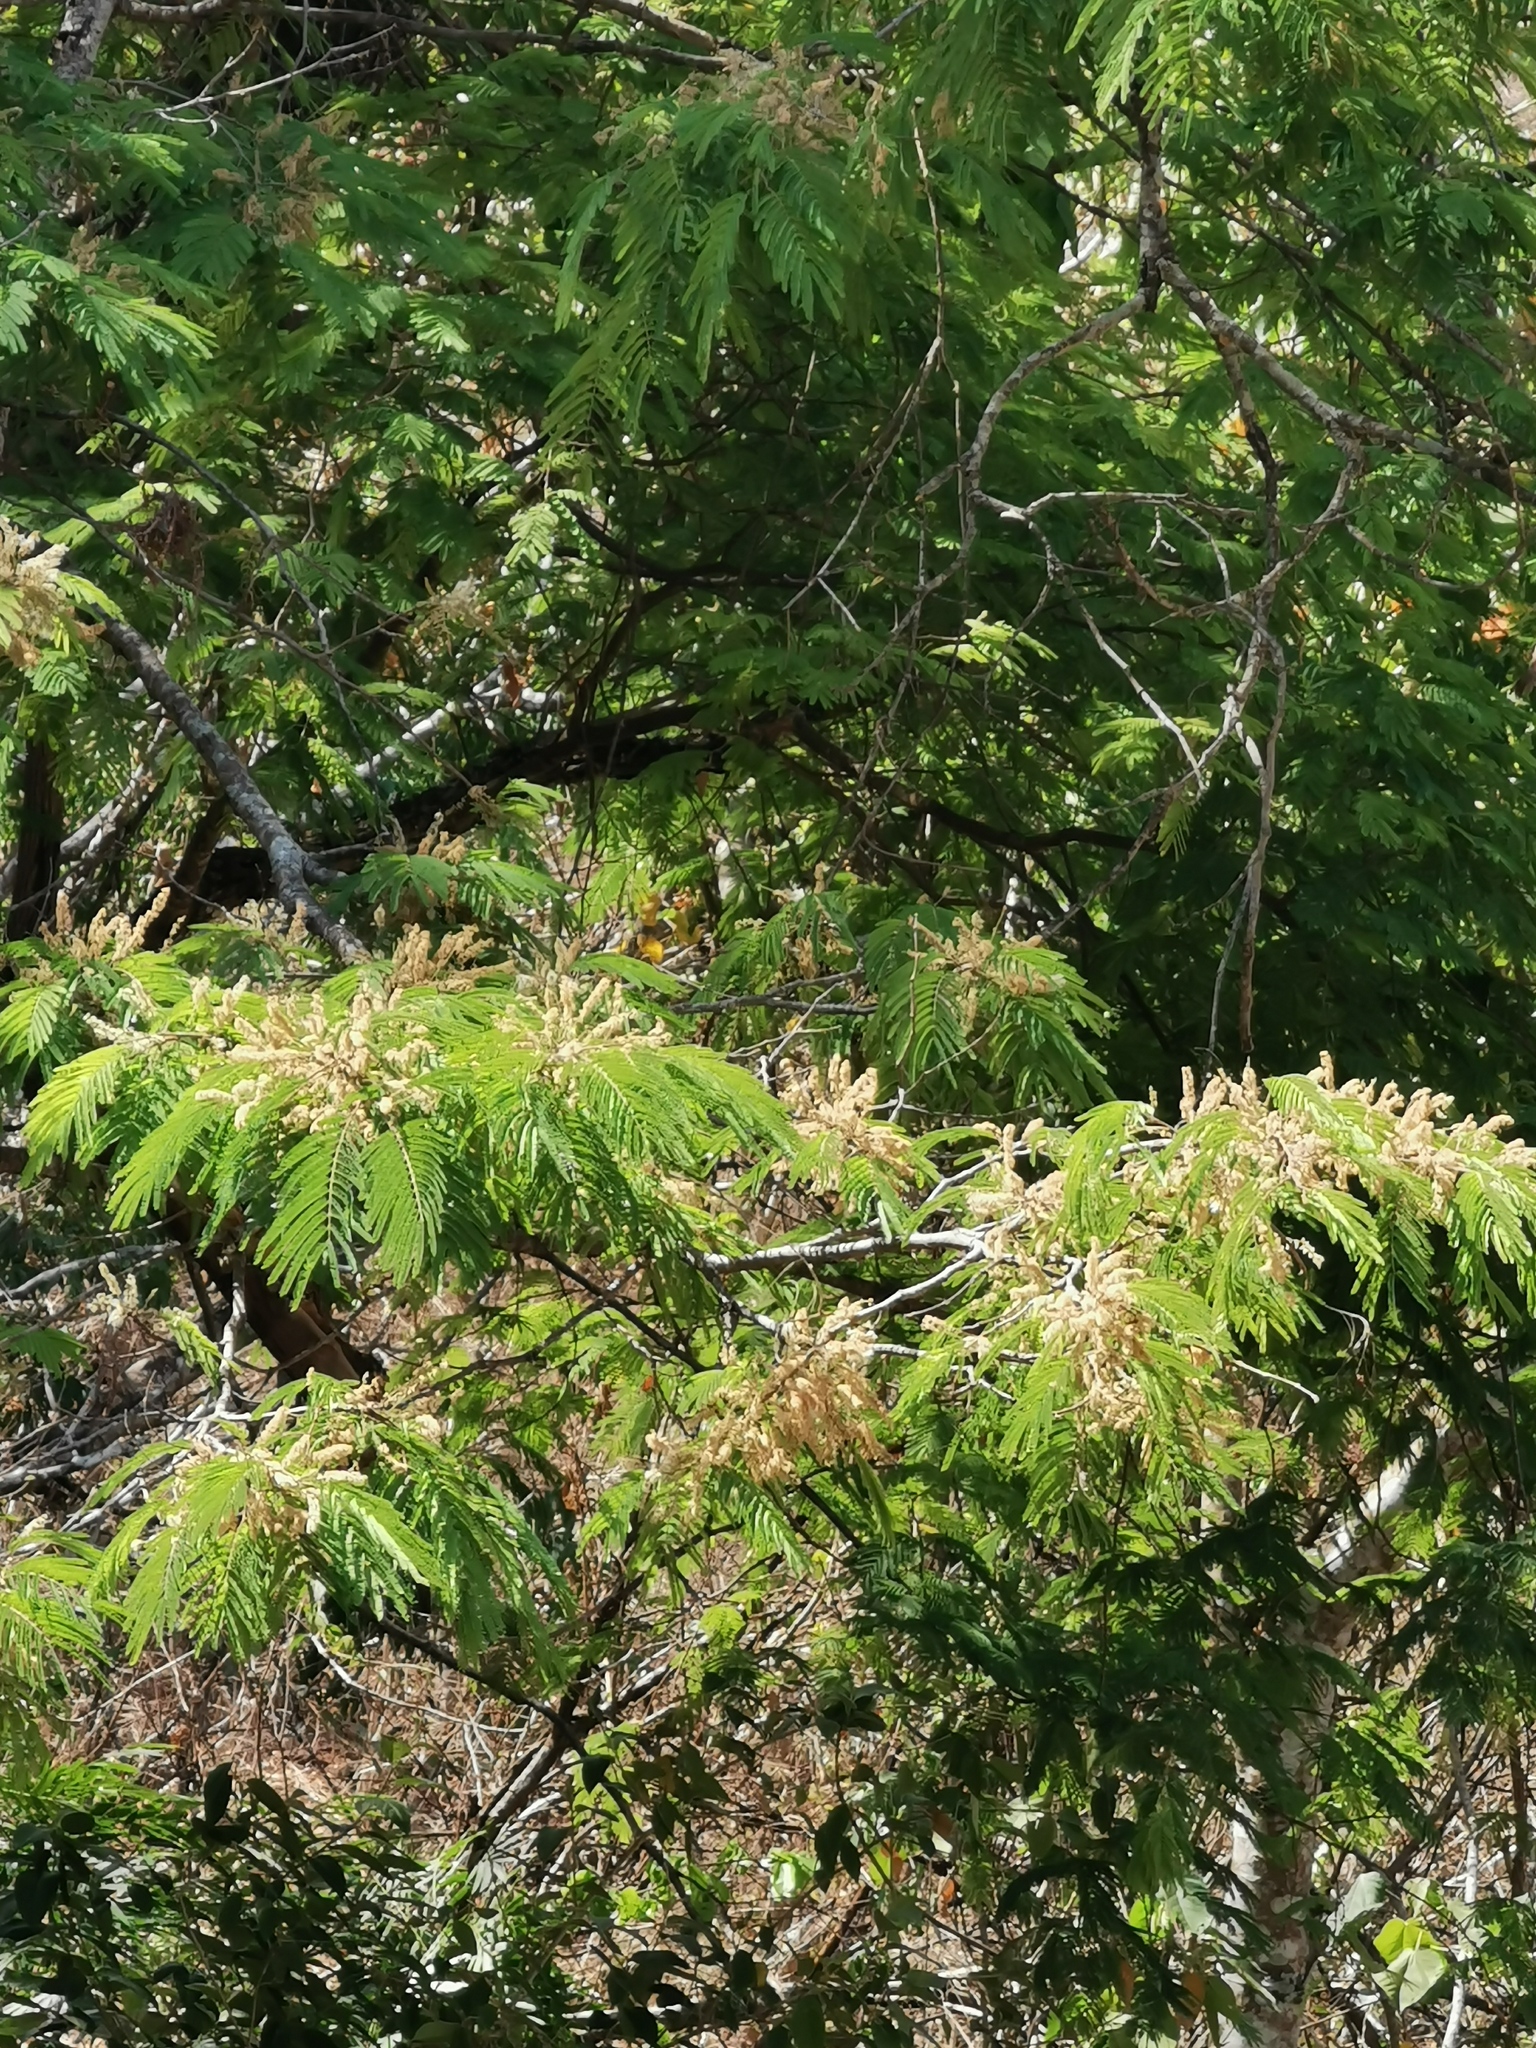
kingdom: Plantae
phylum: Tracheophyta
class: Magnoliopsida
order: Fabales
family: Fabaceae
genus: Lysiloma
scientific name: Lysiloma acapulcense
